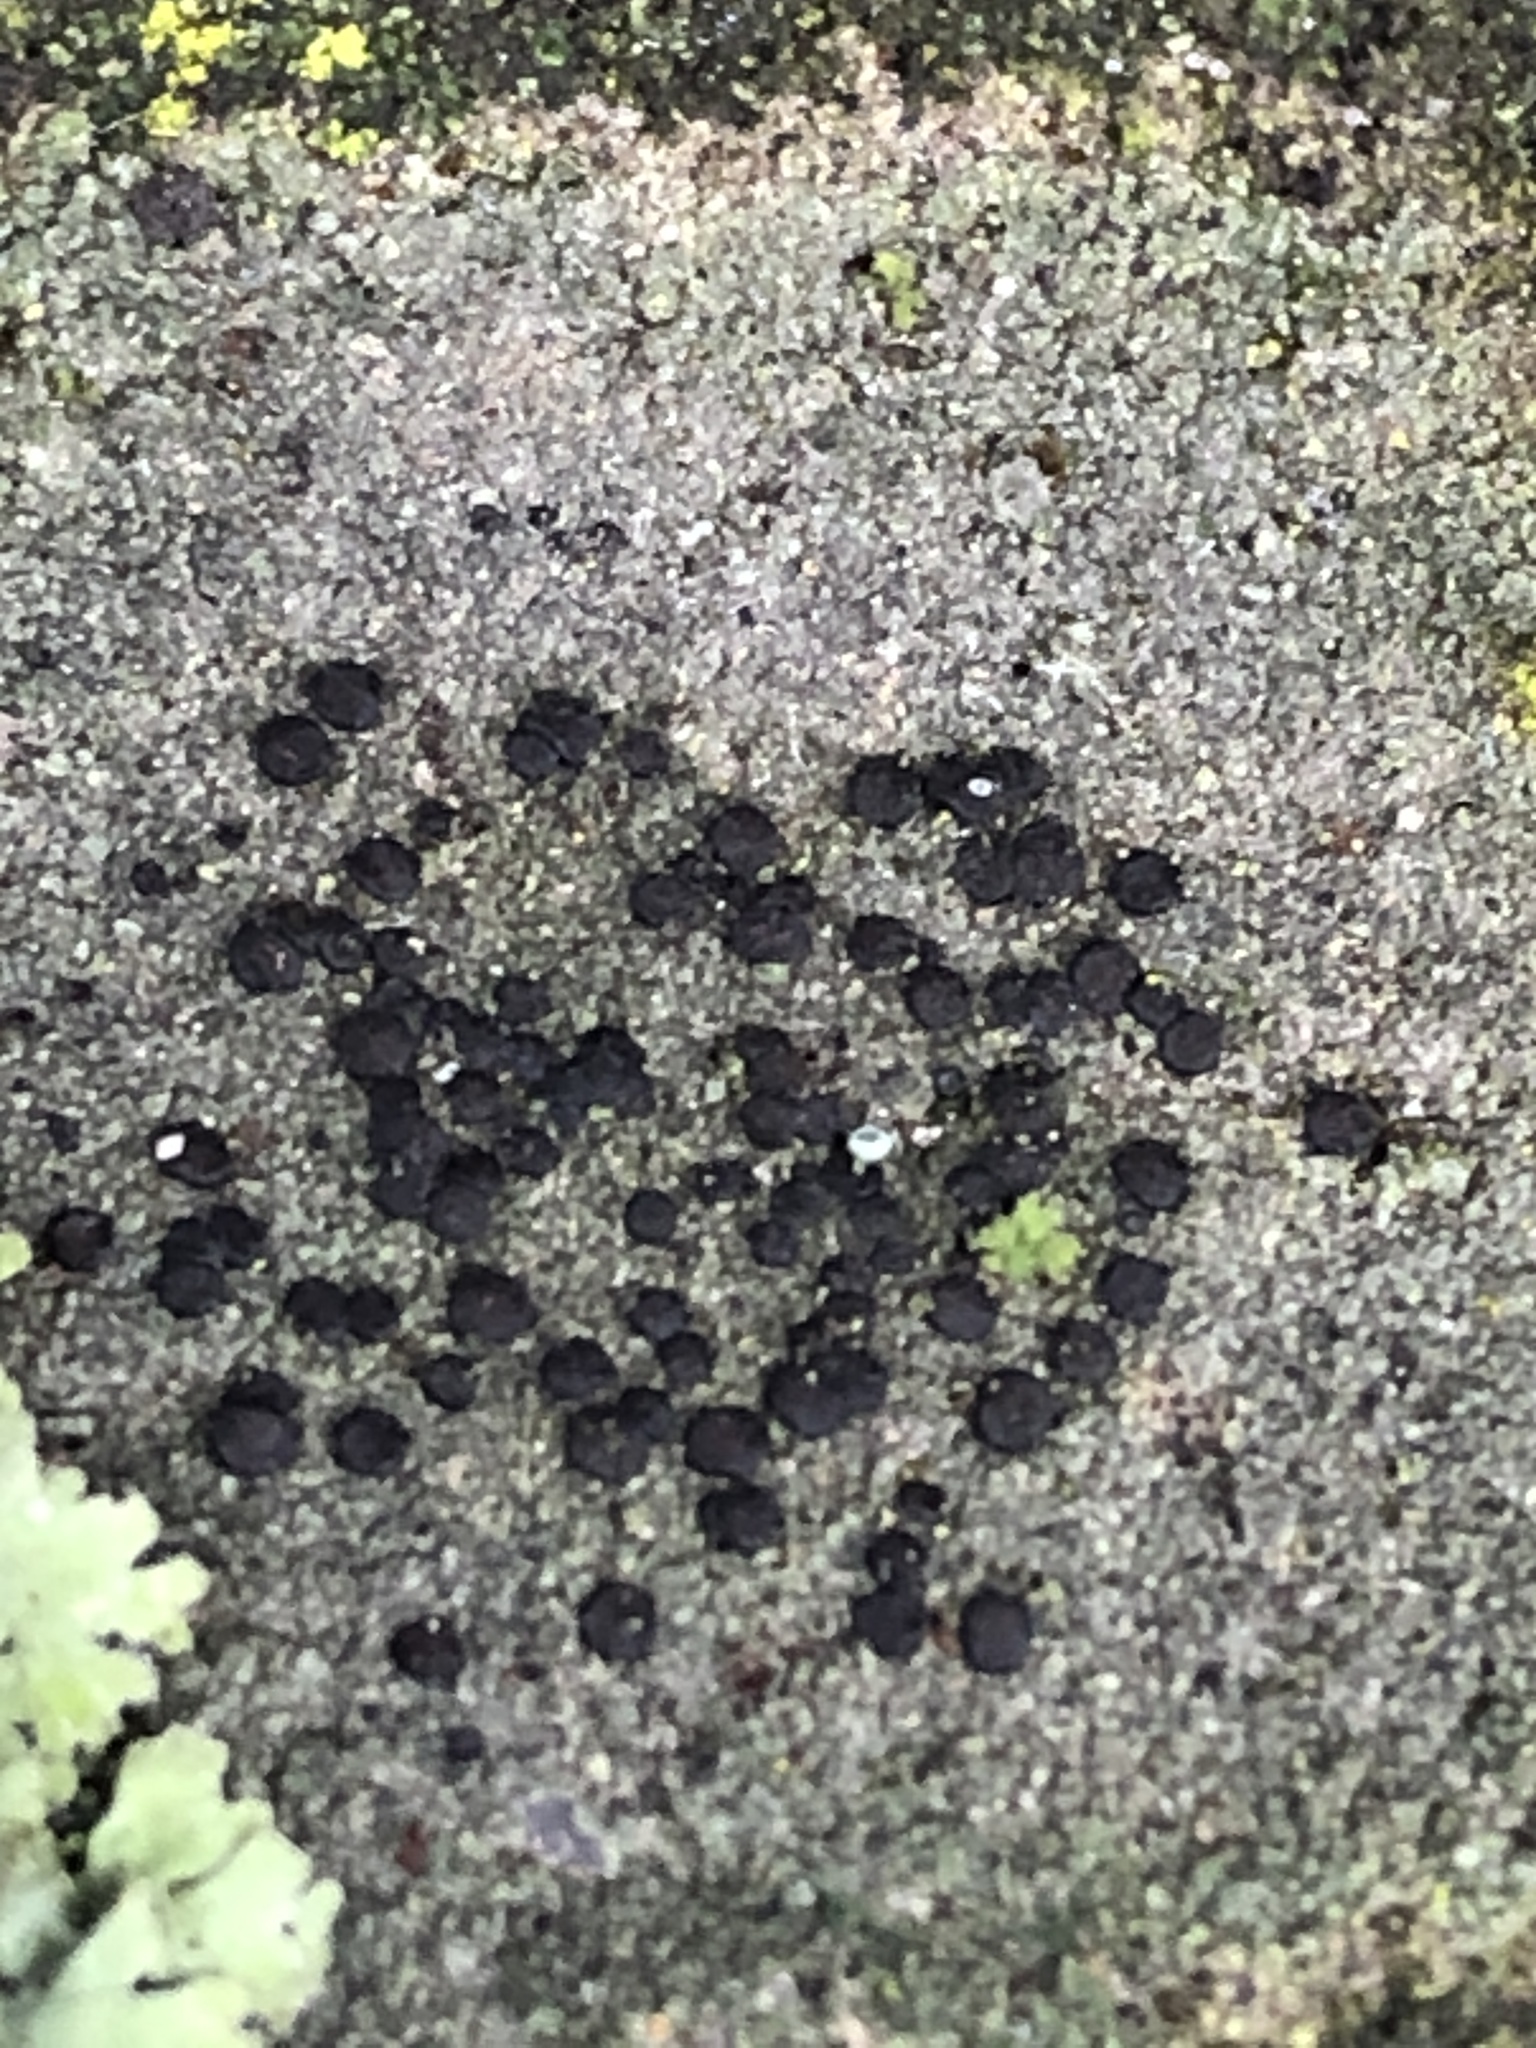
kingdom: Fungi
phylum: Ascomycota
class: Lecanoromycetes
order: Lecanorales
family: Lecanoraceae
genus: Lecidella
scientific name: Lecidella stigmatea
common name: Limestone disc lichen
